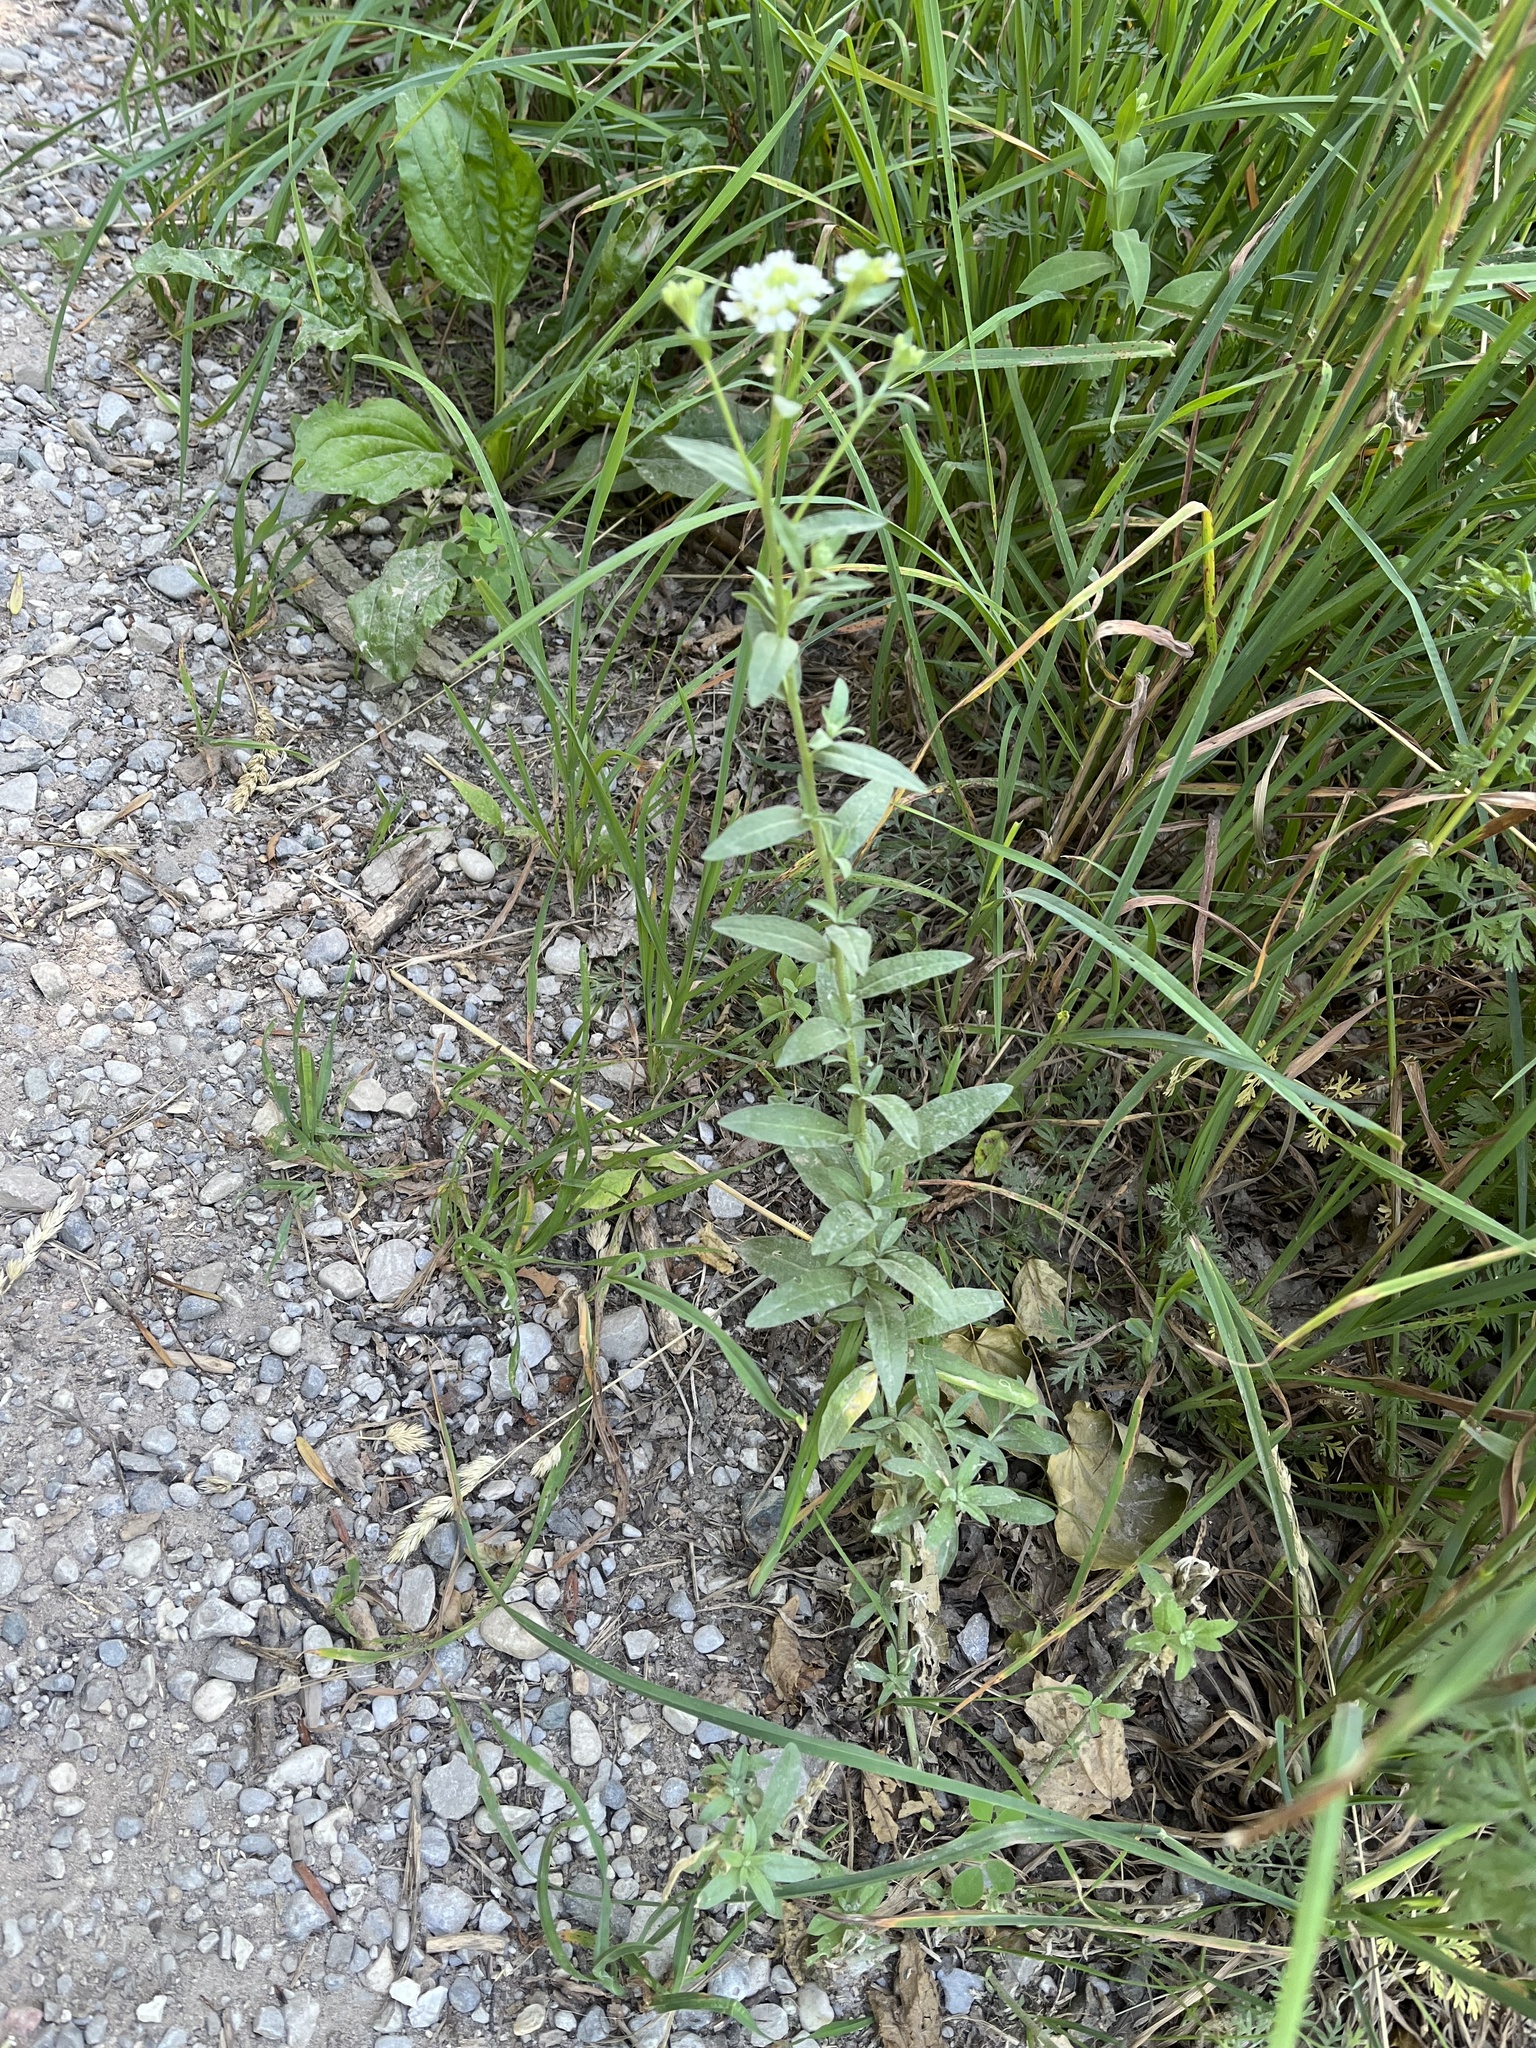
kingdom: Plantae
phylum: Tracheophyta
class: Magnoliopsida
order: Brassicales
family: Brassicaceae
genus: Berteroa
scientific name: Berteroa incana
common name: Hoary alison
